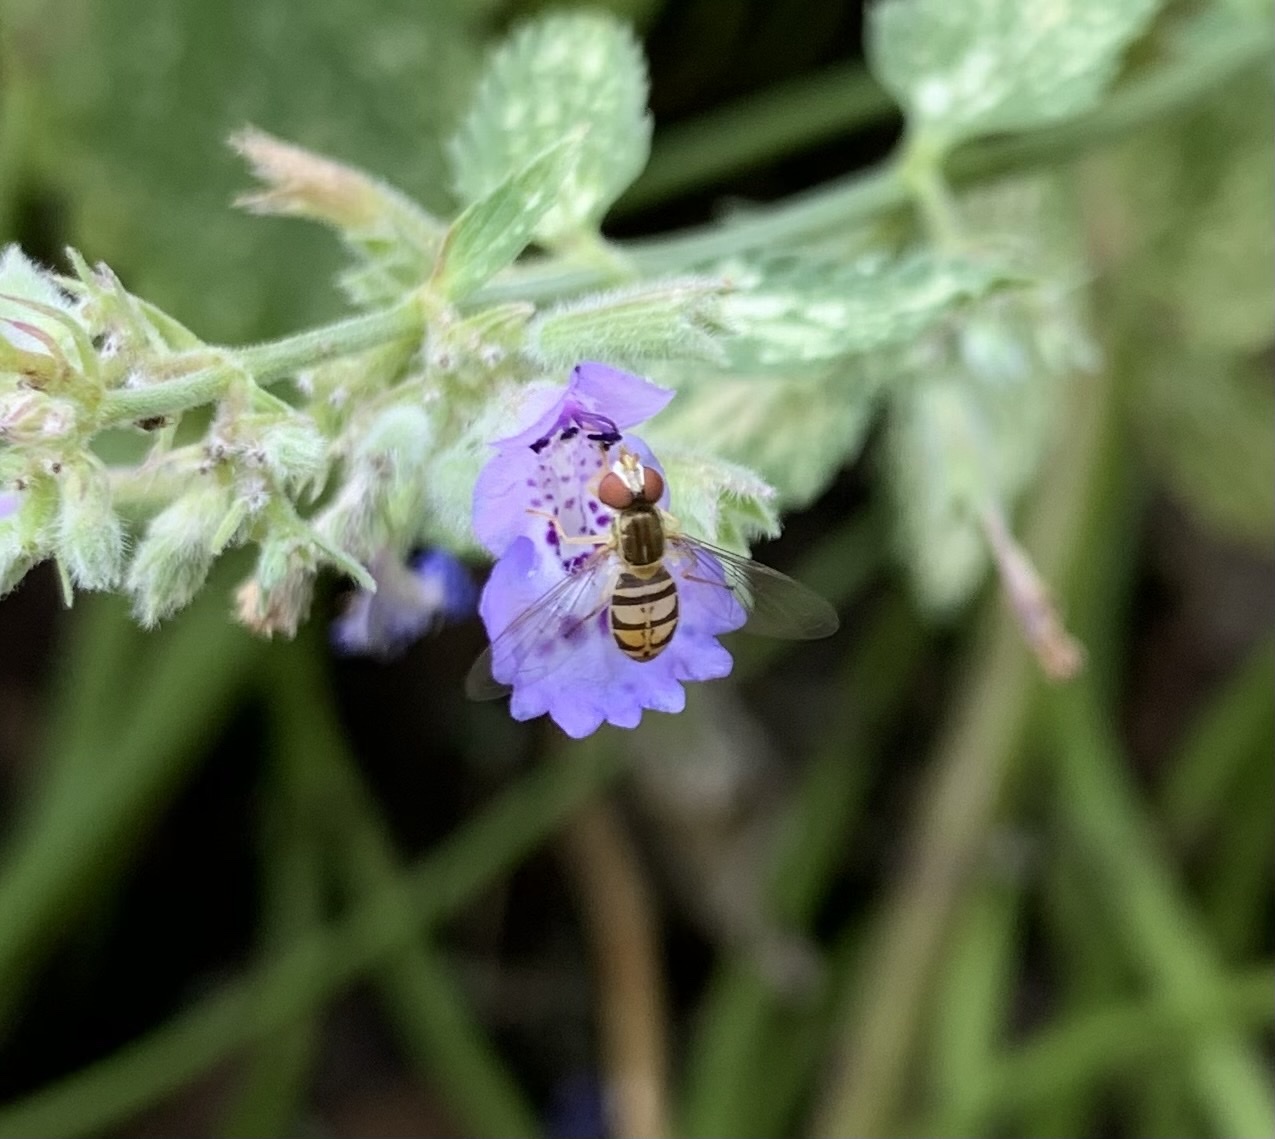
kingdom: Animalia
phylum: Arthropoda
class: Insecta
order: Diptera
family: Syrphidae
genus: Toxomerus
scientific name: Toxomerus marginatus
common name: Syrphid fly
